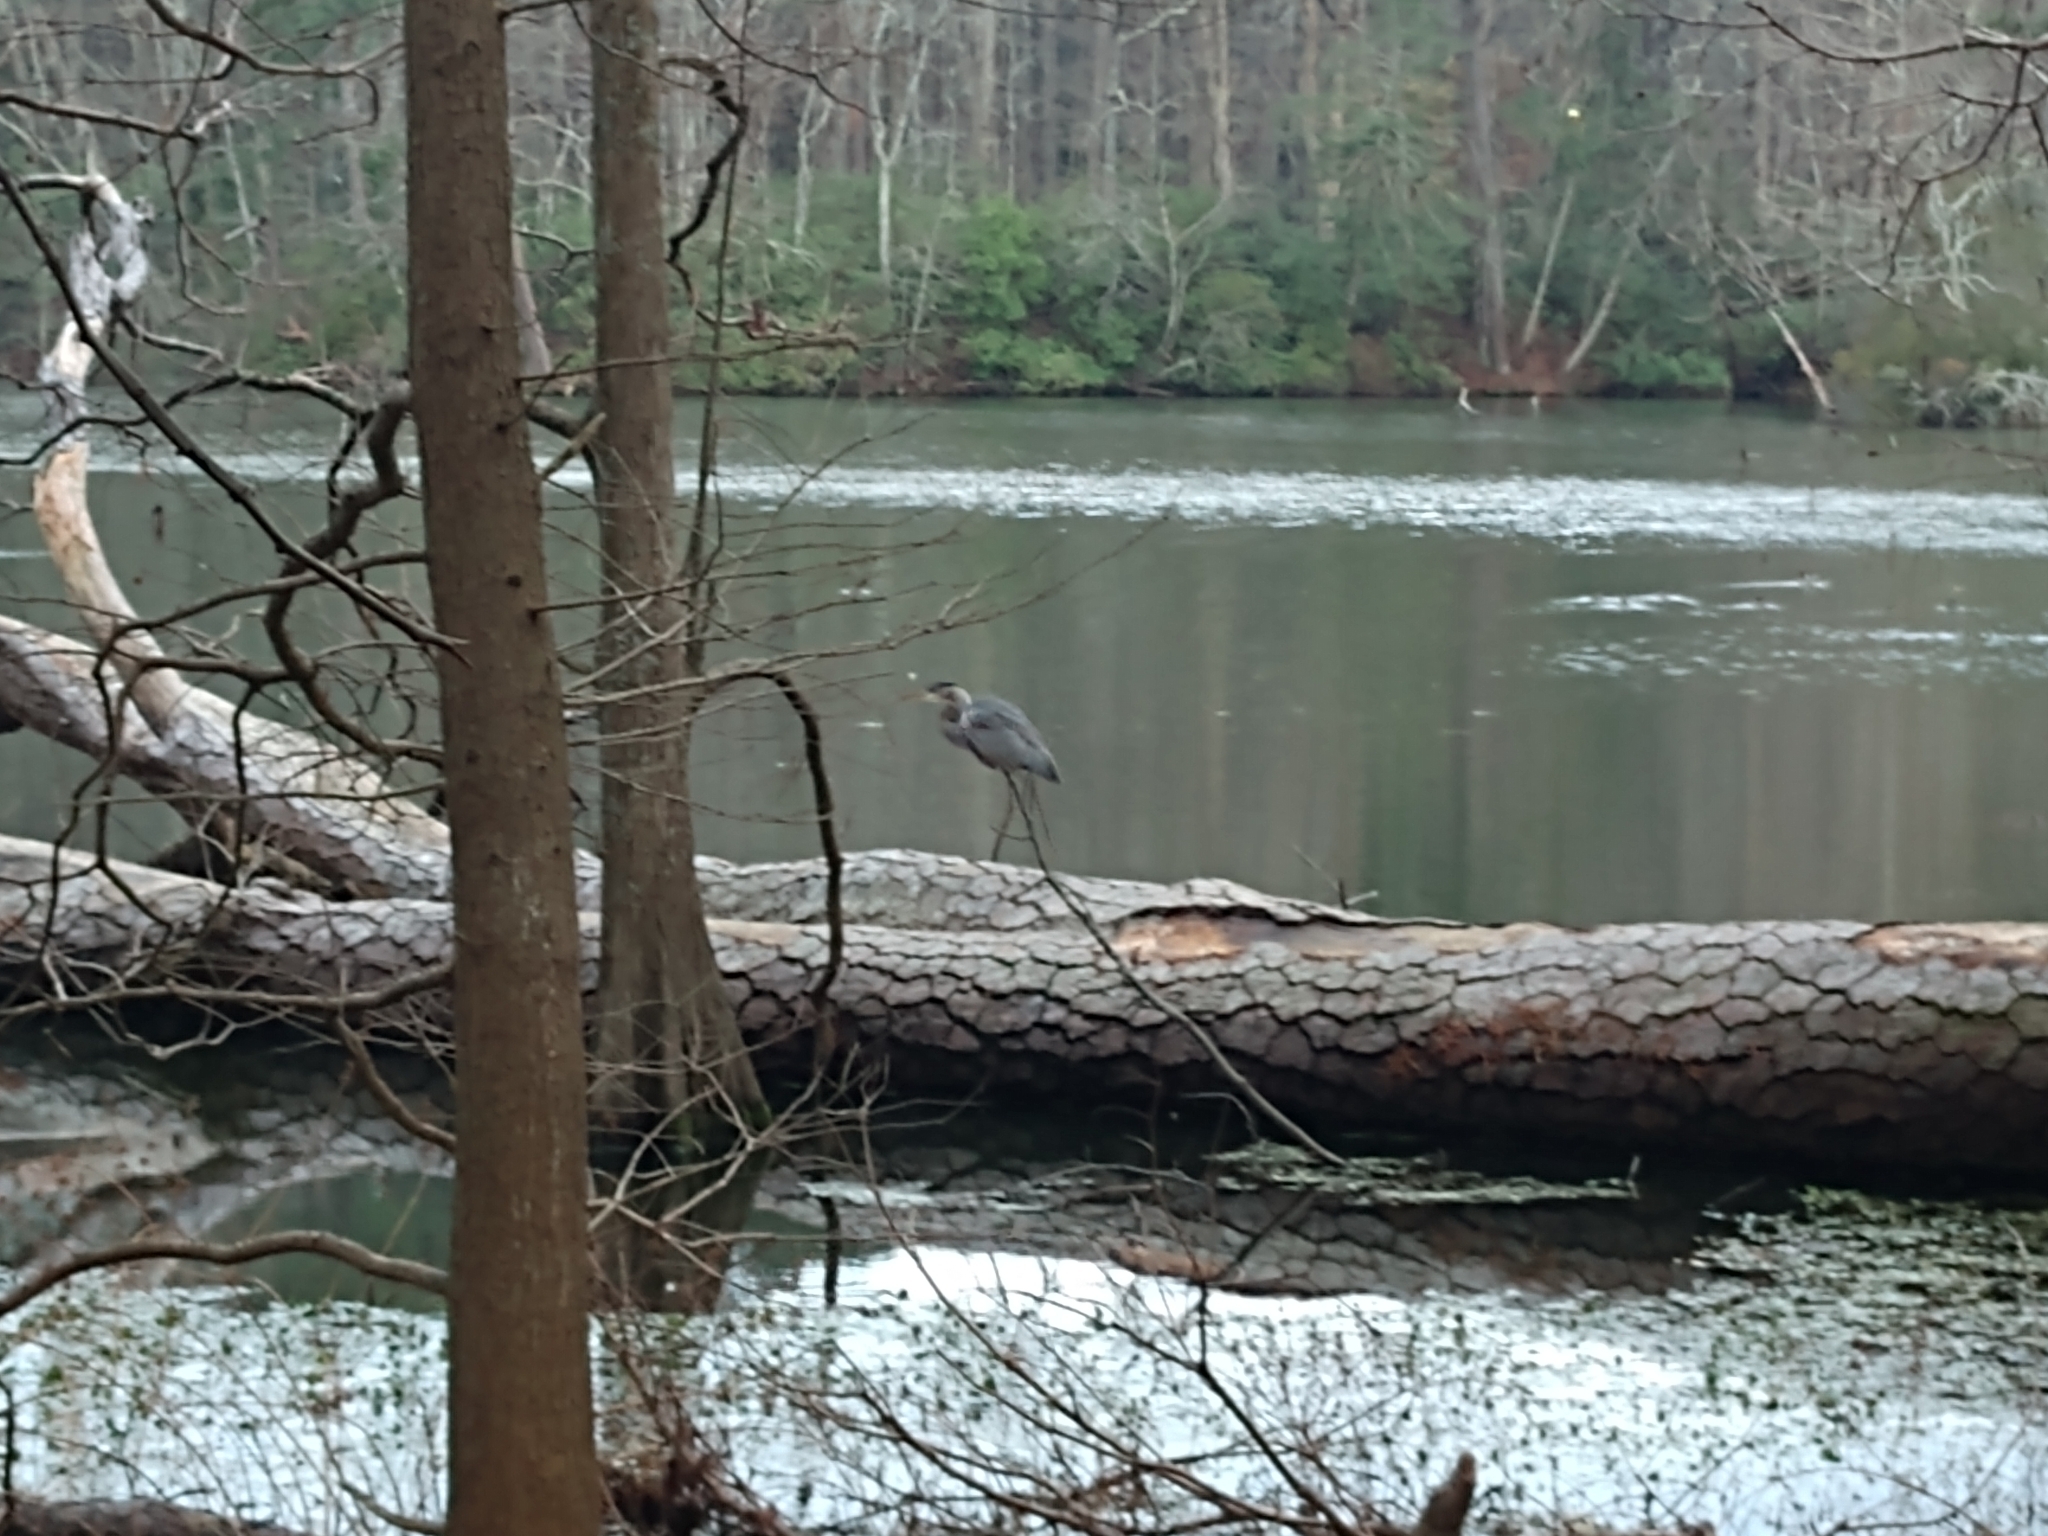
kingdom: Animalia
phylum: Chordata
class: Aves
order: Pelecaniformes
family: Ardeidae
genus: Ardea
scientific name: Ardea herodias
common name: Great blue heron
